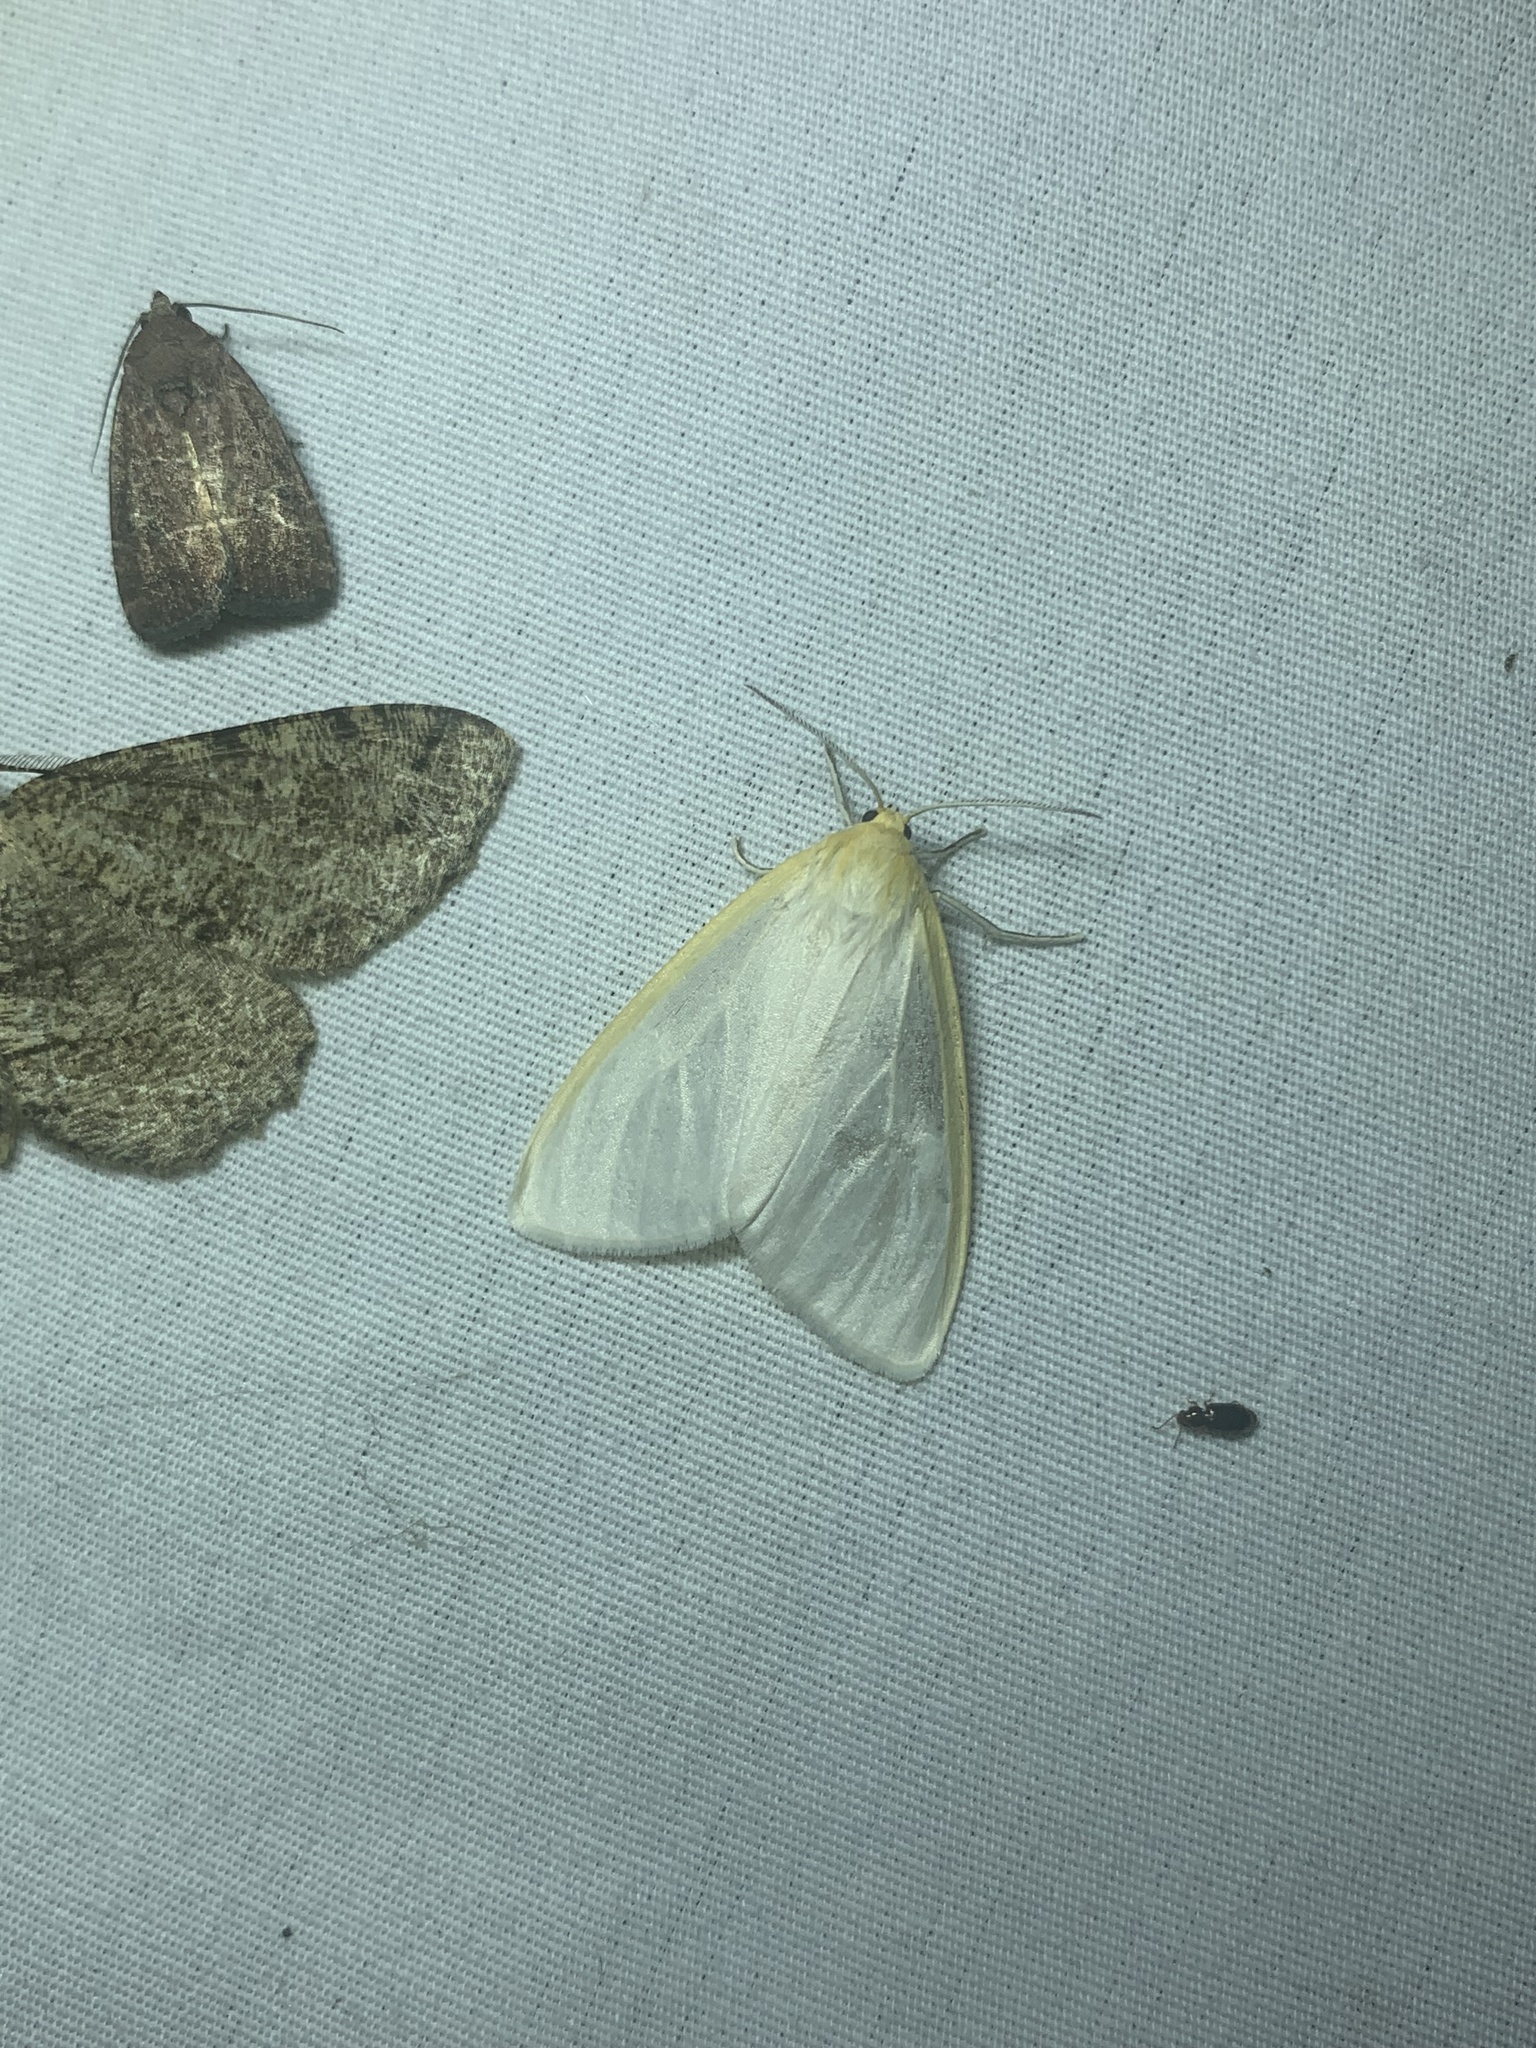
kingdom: Animalia
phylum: Arthropoda
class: Insecta
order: Lepidoptera
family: Erebidae
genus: Cycnia
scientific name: Cycnia tenera
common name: Delicate cycnia moth
